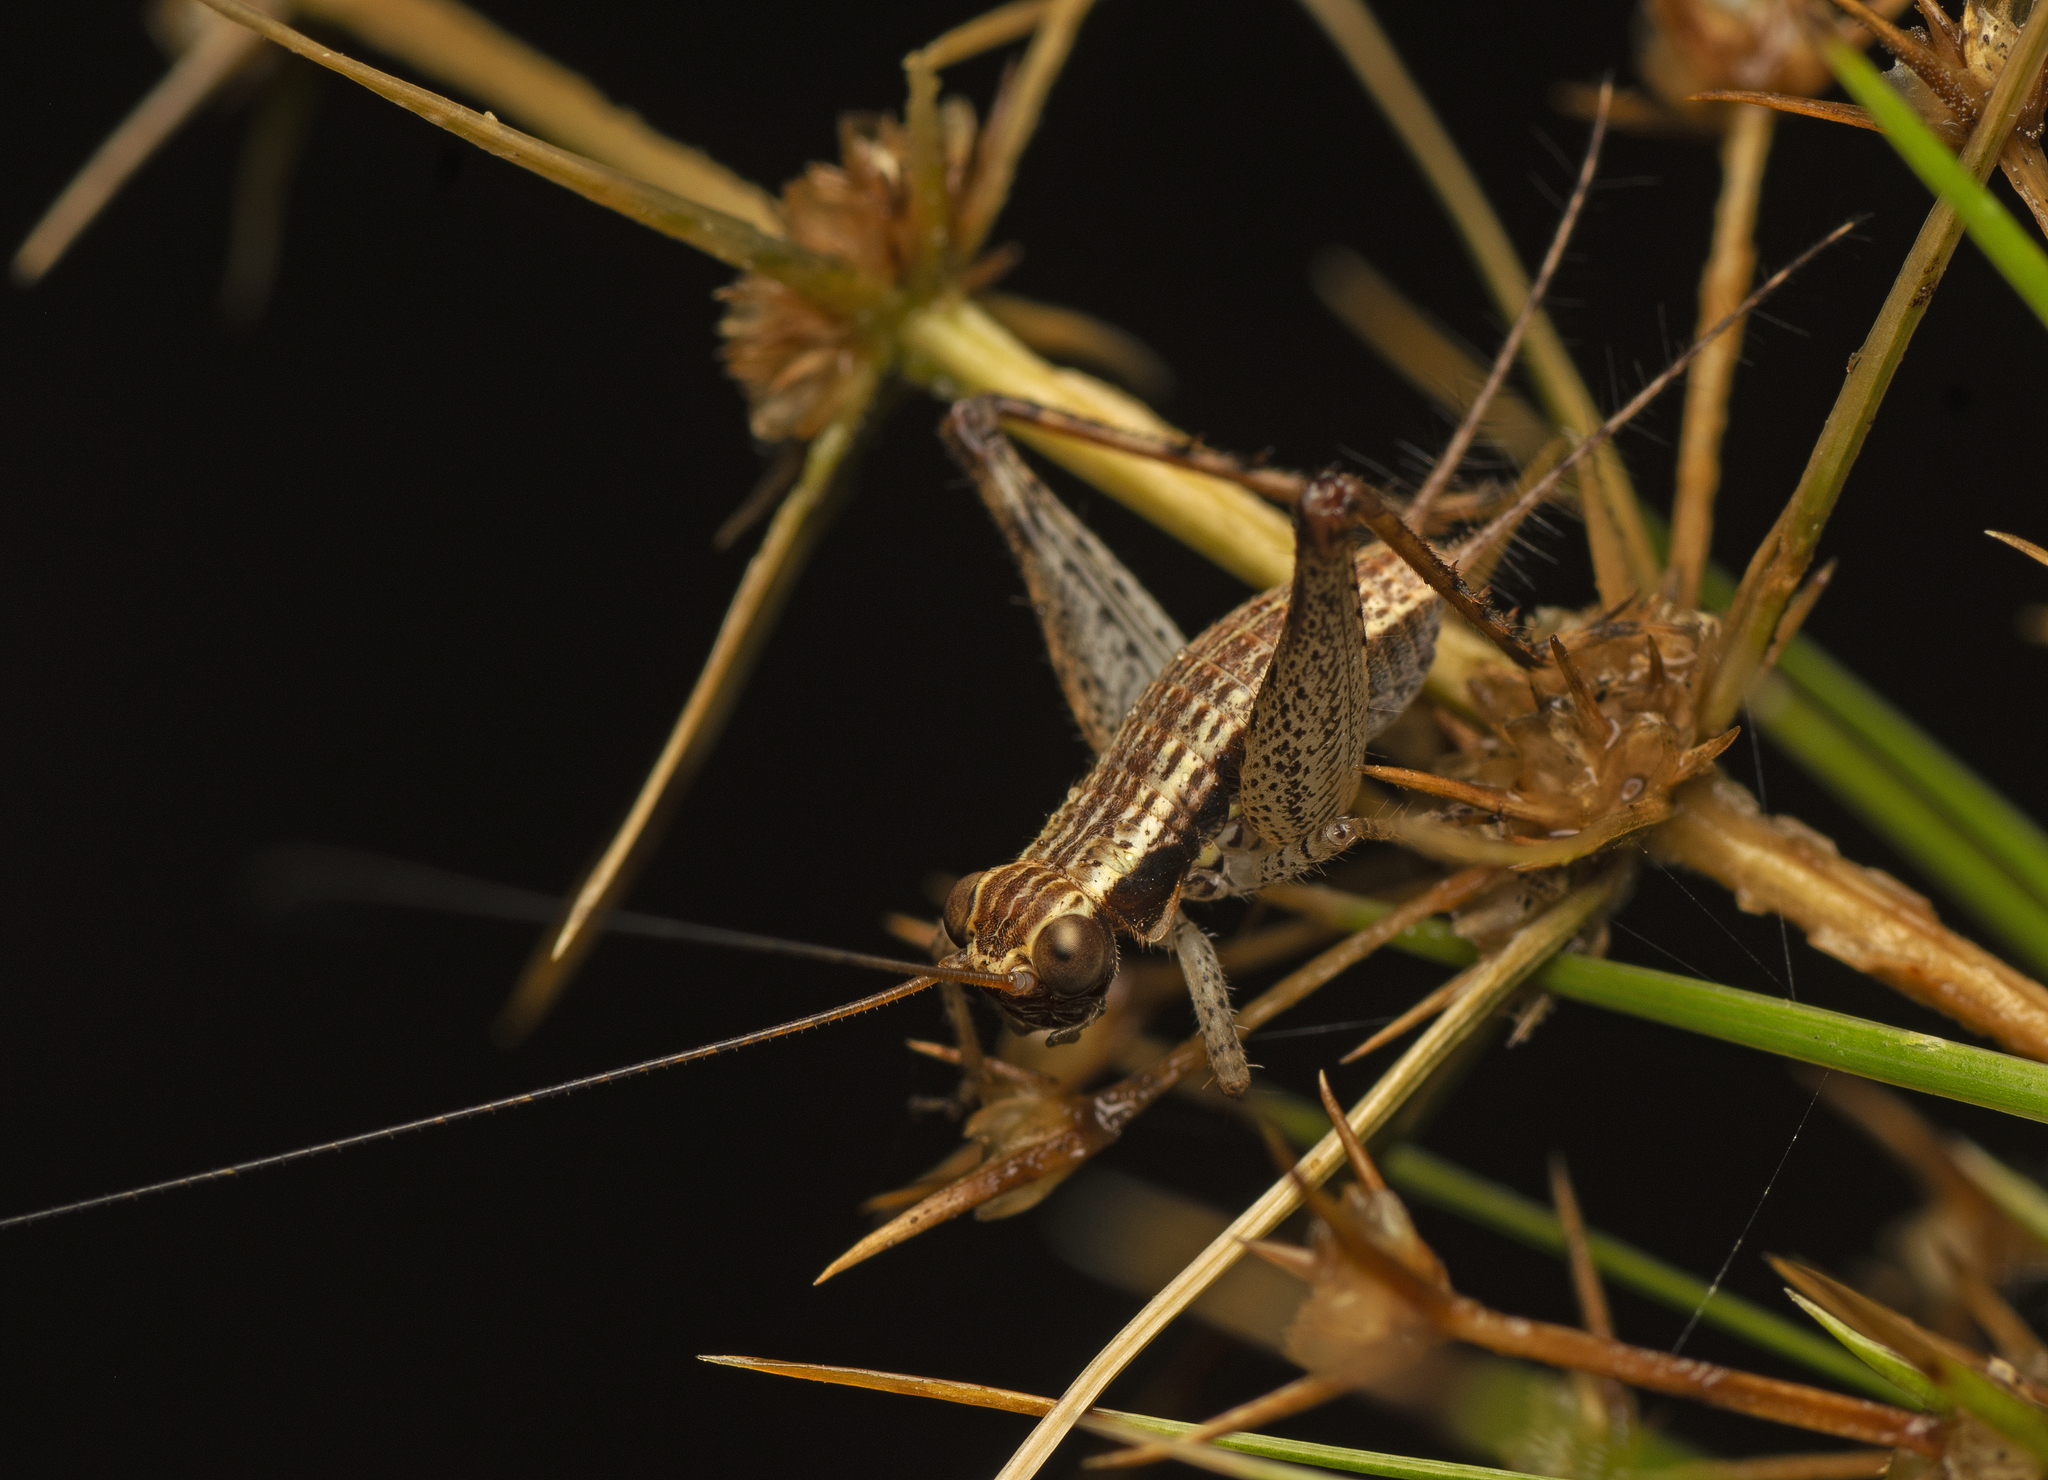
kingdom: Animalia
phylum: Arthropoda
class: Insecta
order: Orthoptera
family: Gryllidae
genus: Cardiodactylus
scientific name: Cardiodactylus novaeguineae
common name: Sad cricket
